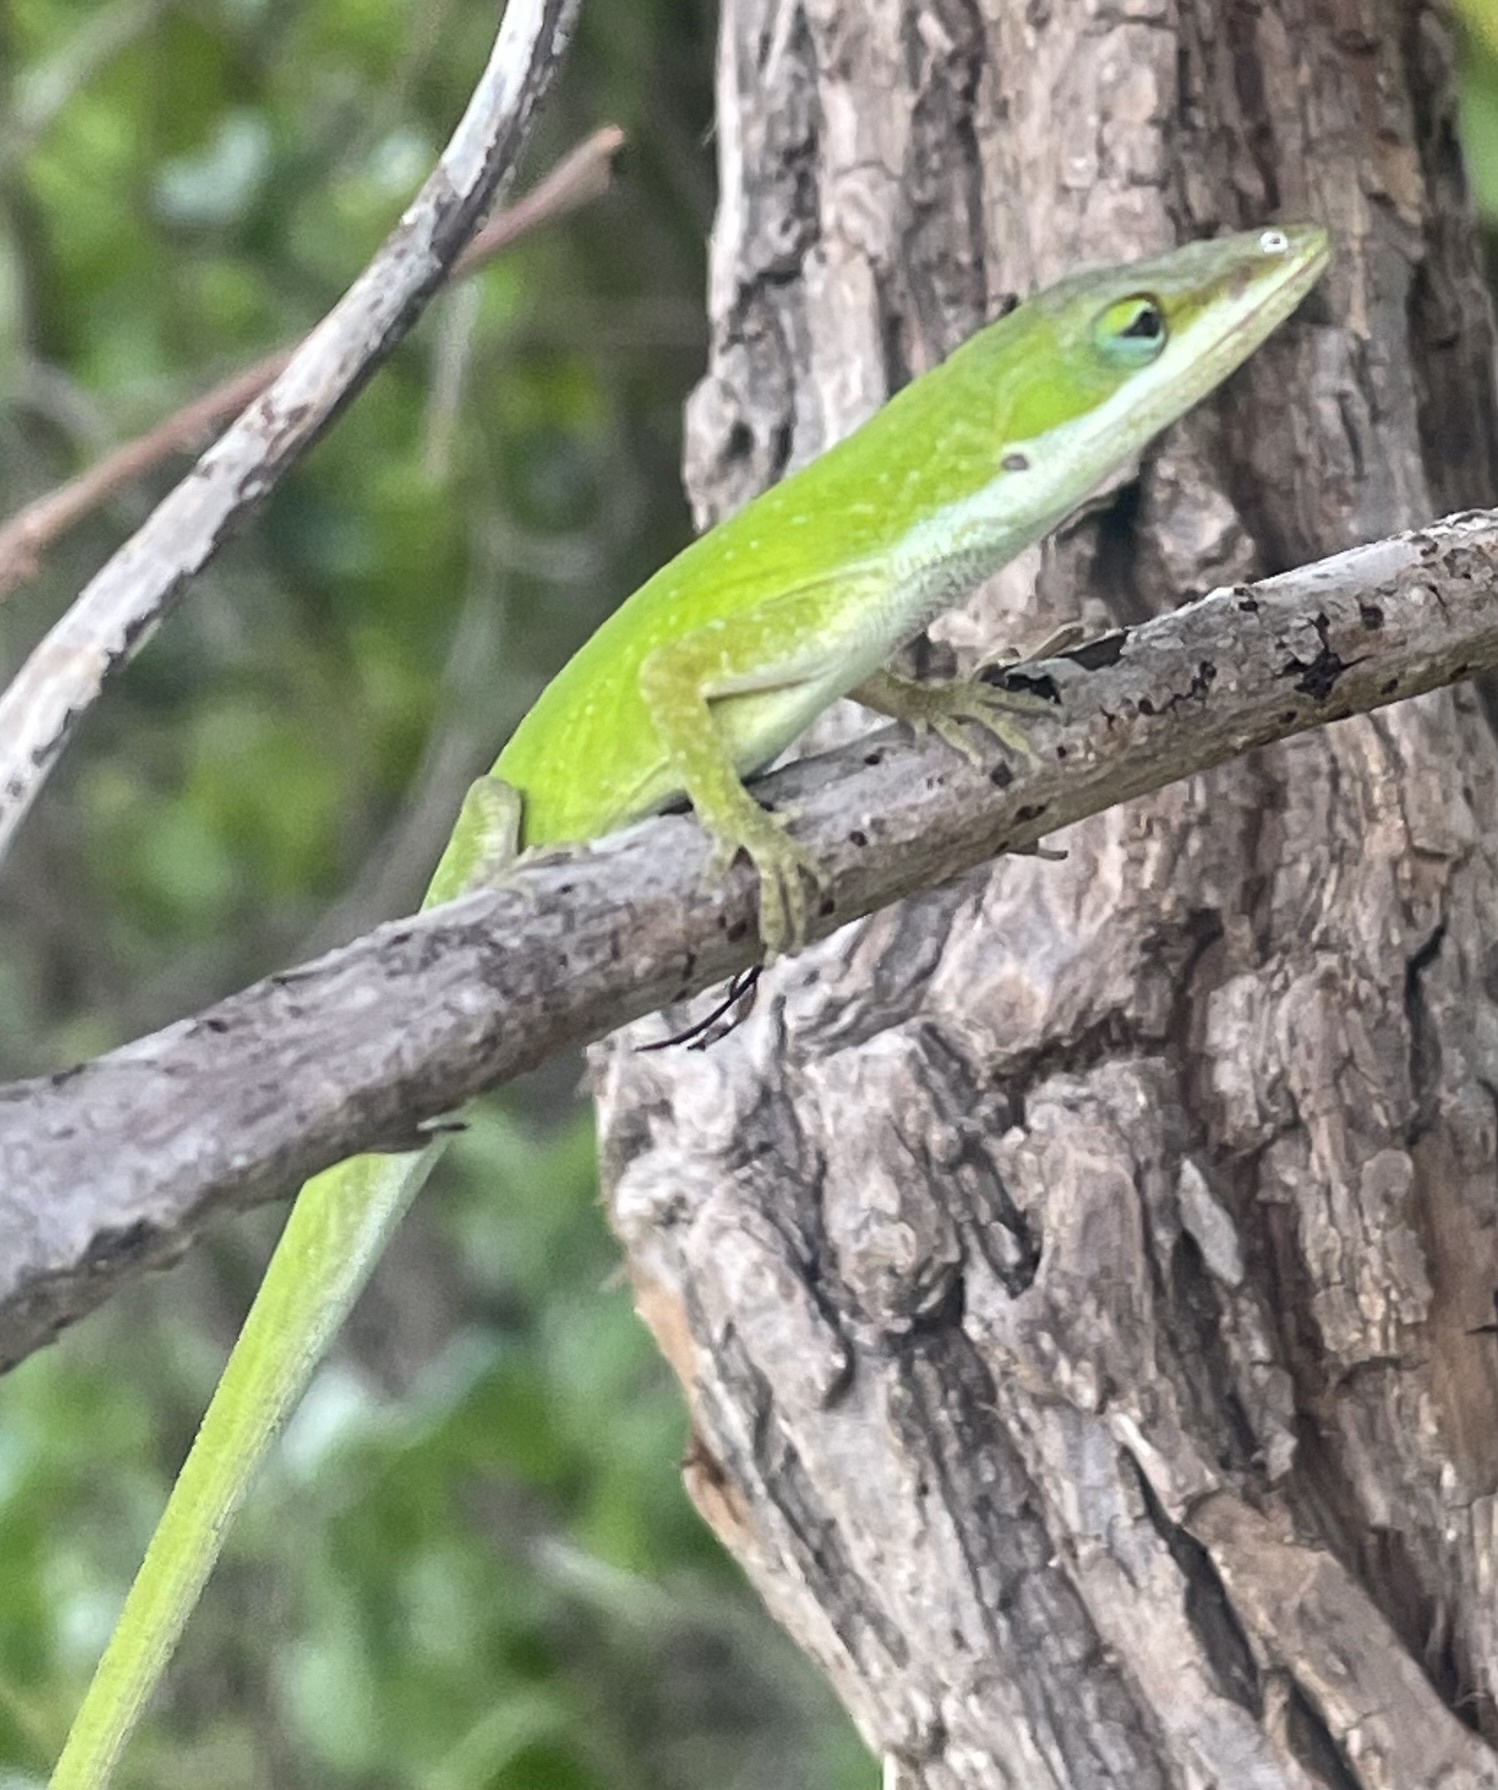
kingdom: Animalia
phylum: Chordata
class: Squamata
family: Dactyloidae
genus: Anolis
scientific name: Anolis carolinensis
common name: Green anole
